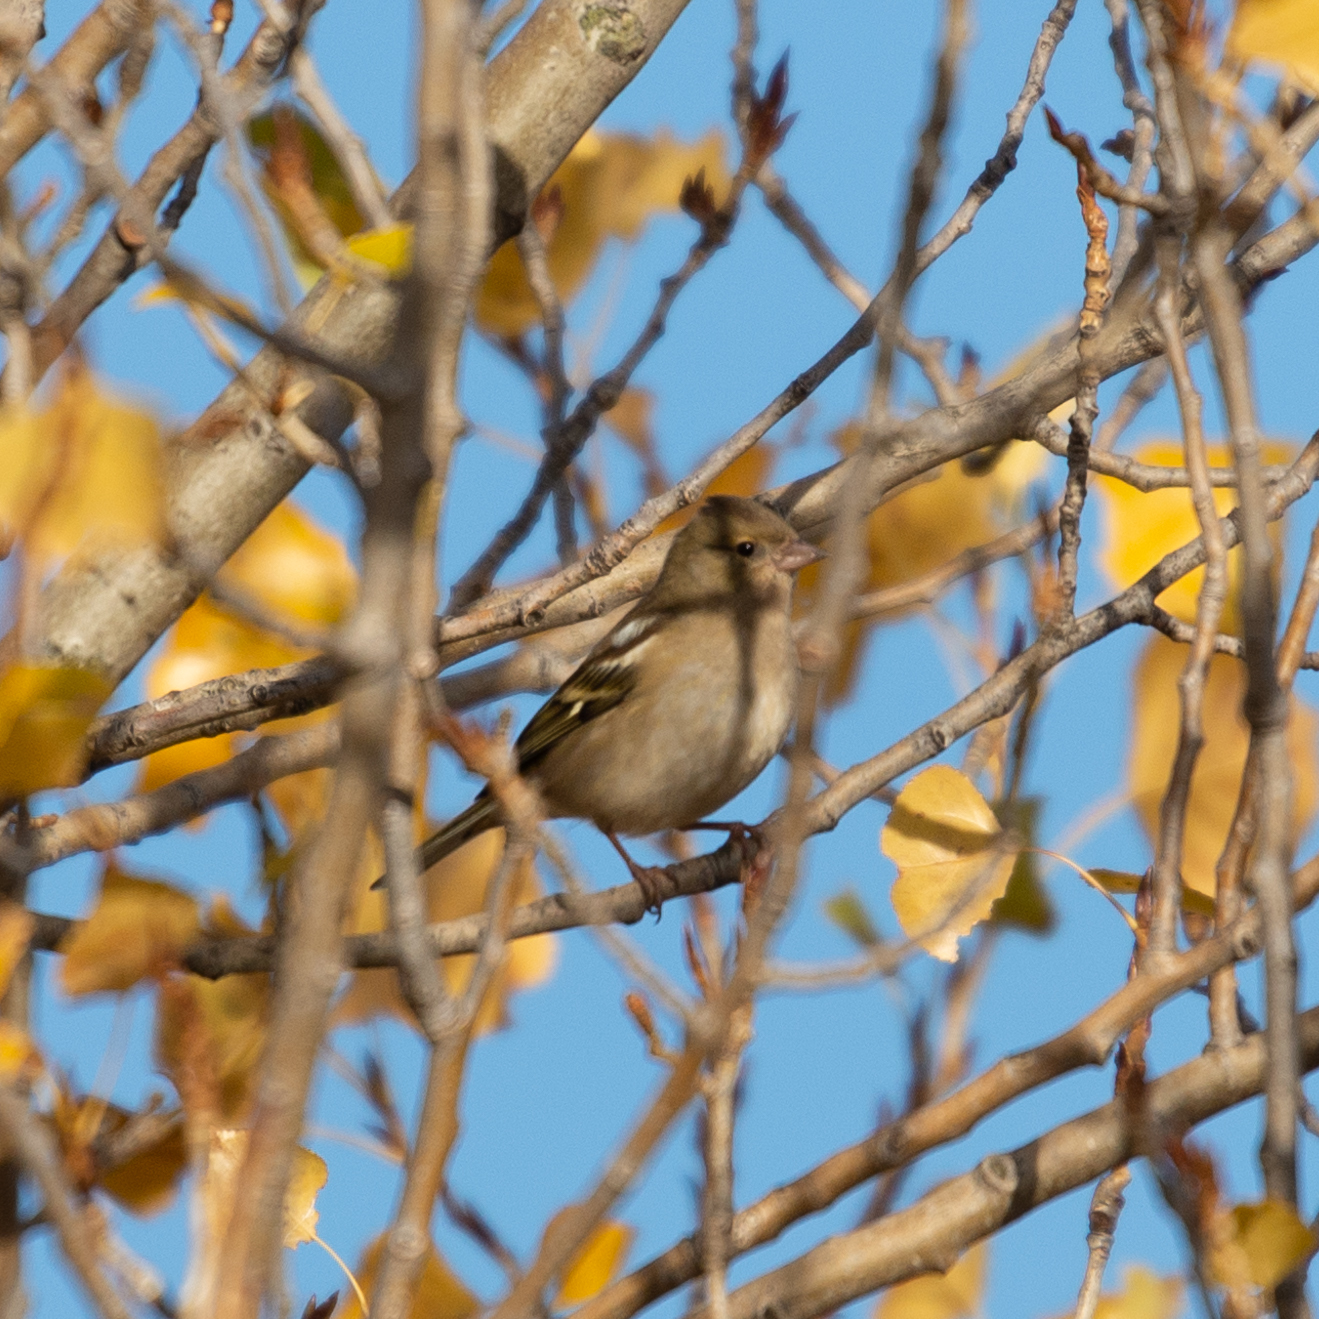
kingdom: Animalia
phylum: Chordata
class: Aves
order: Passeriformes
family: Fringillidae
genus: Fringilla
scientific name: Fringilla coelebs
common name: Common chaffinch
